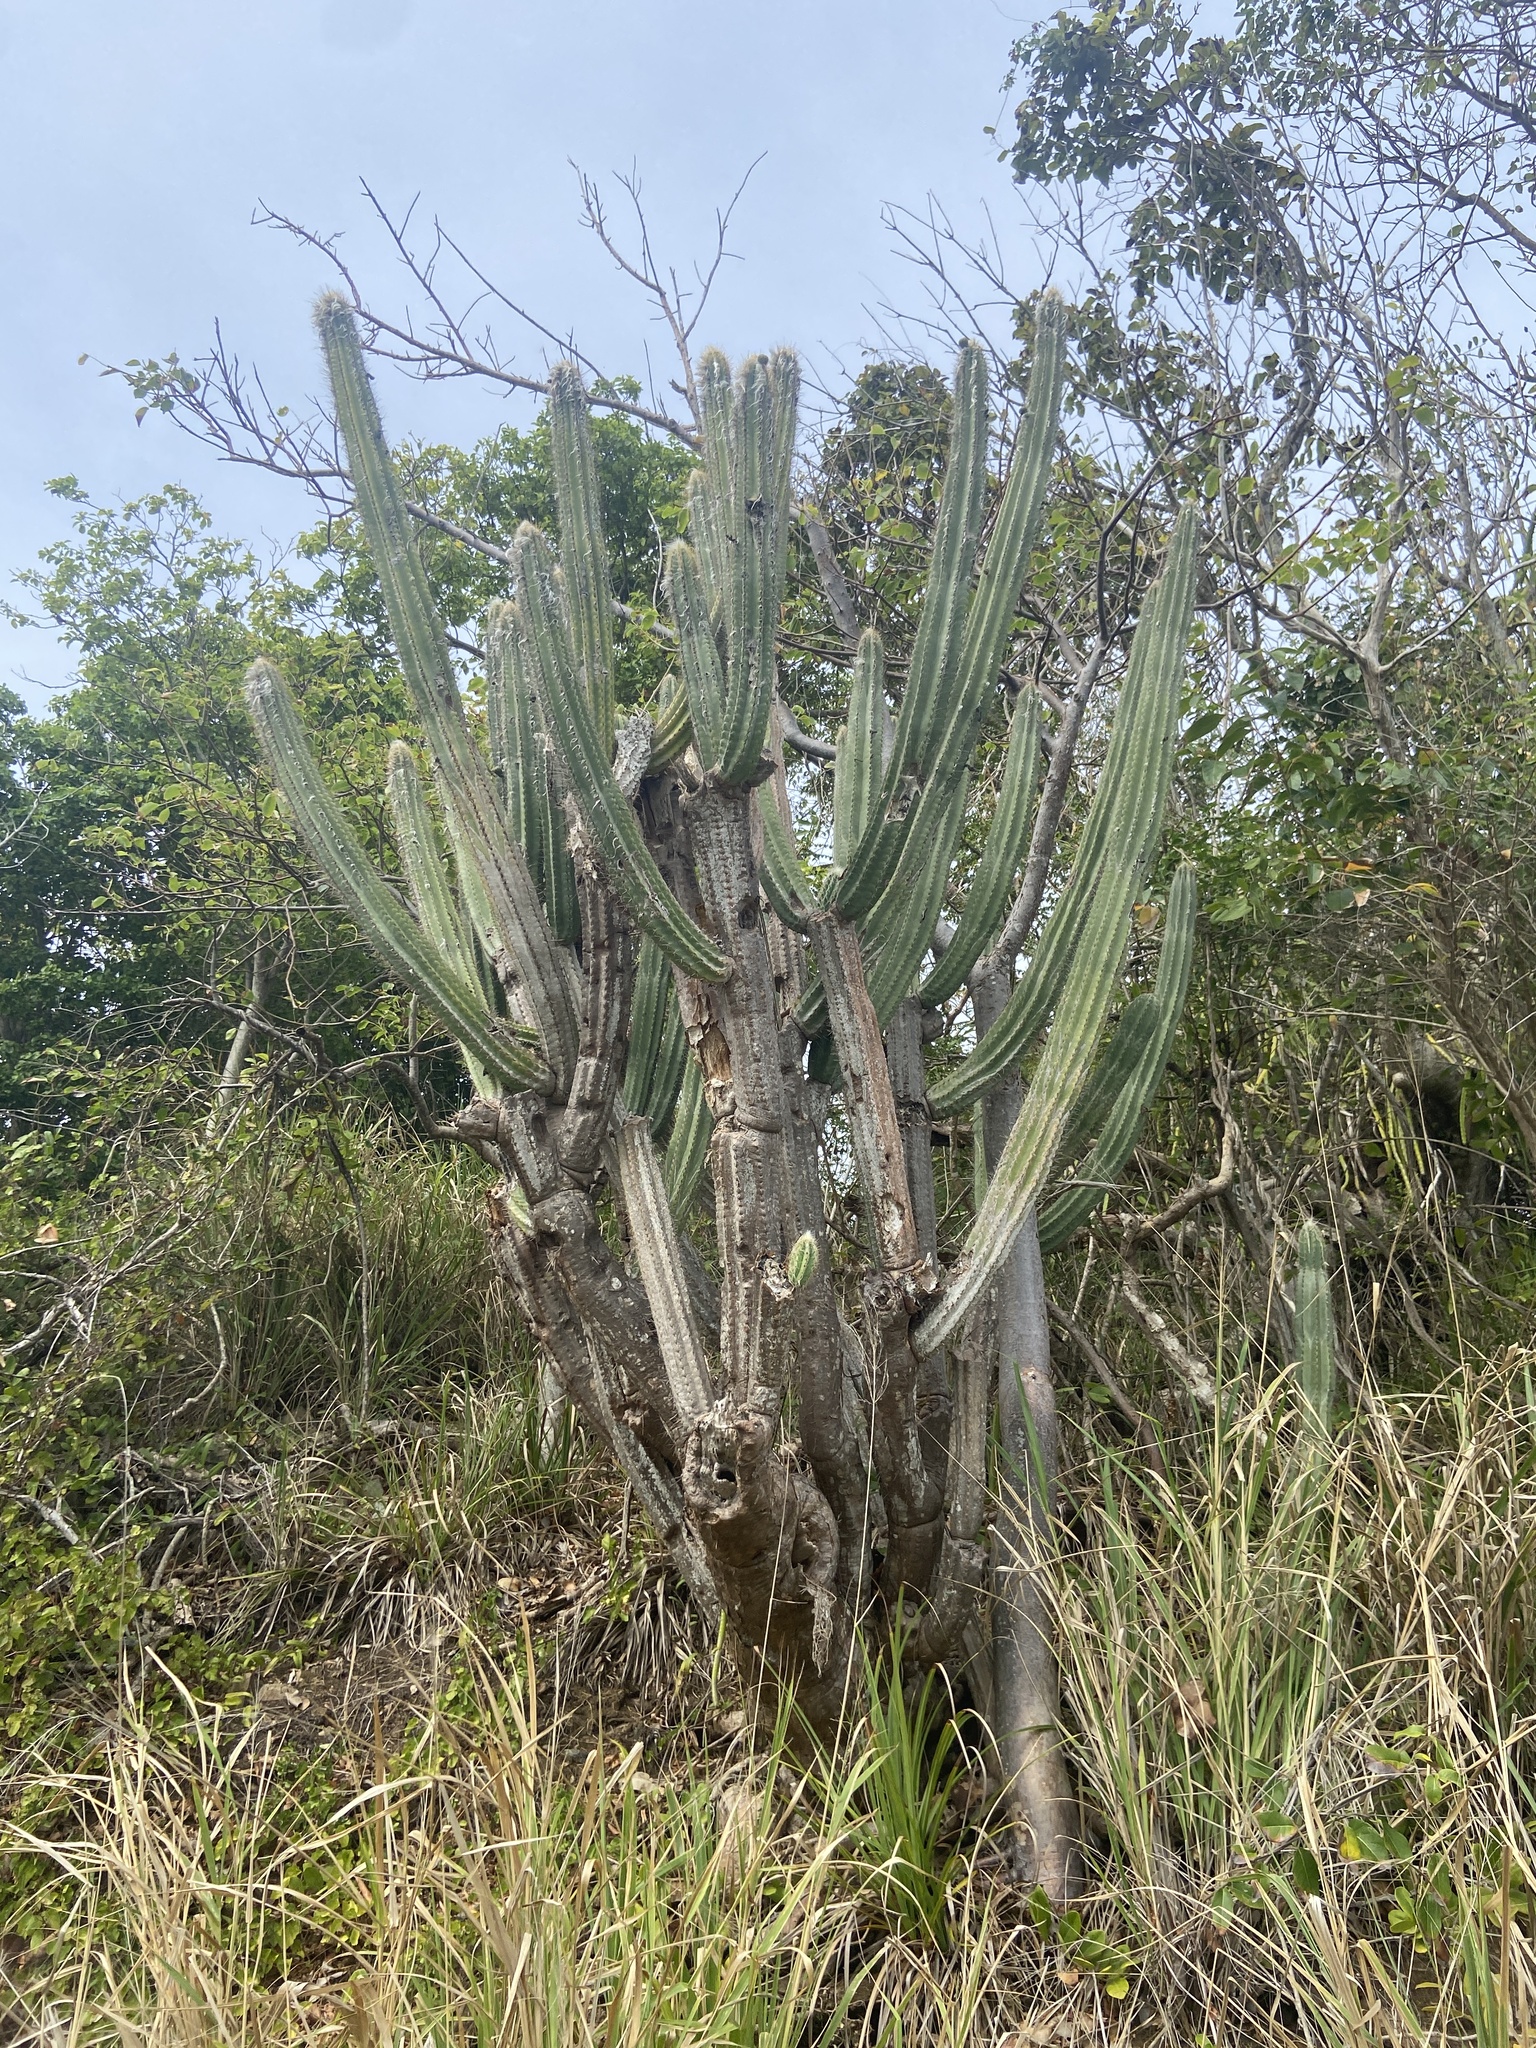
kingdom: Plantae
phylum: Tracheophyta
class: Magnoliopsida
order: Caryophyllales
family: Cactaceae
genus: Pilosocereus
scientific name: Pilosocereus armatus
